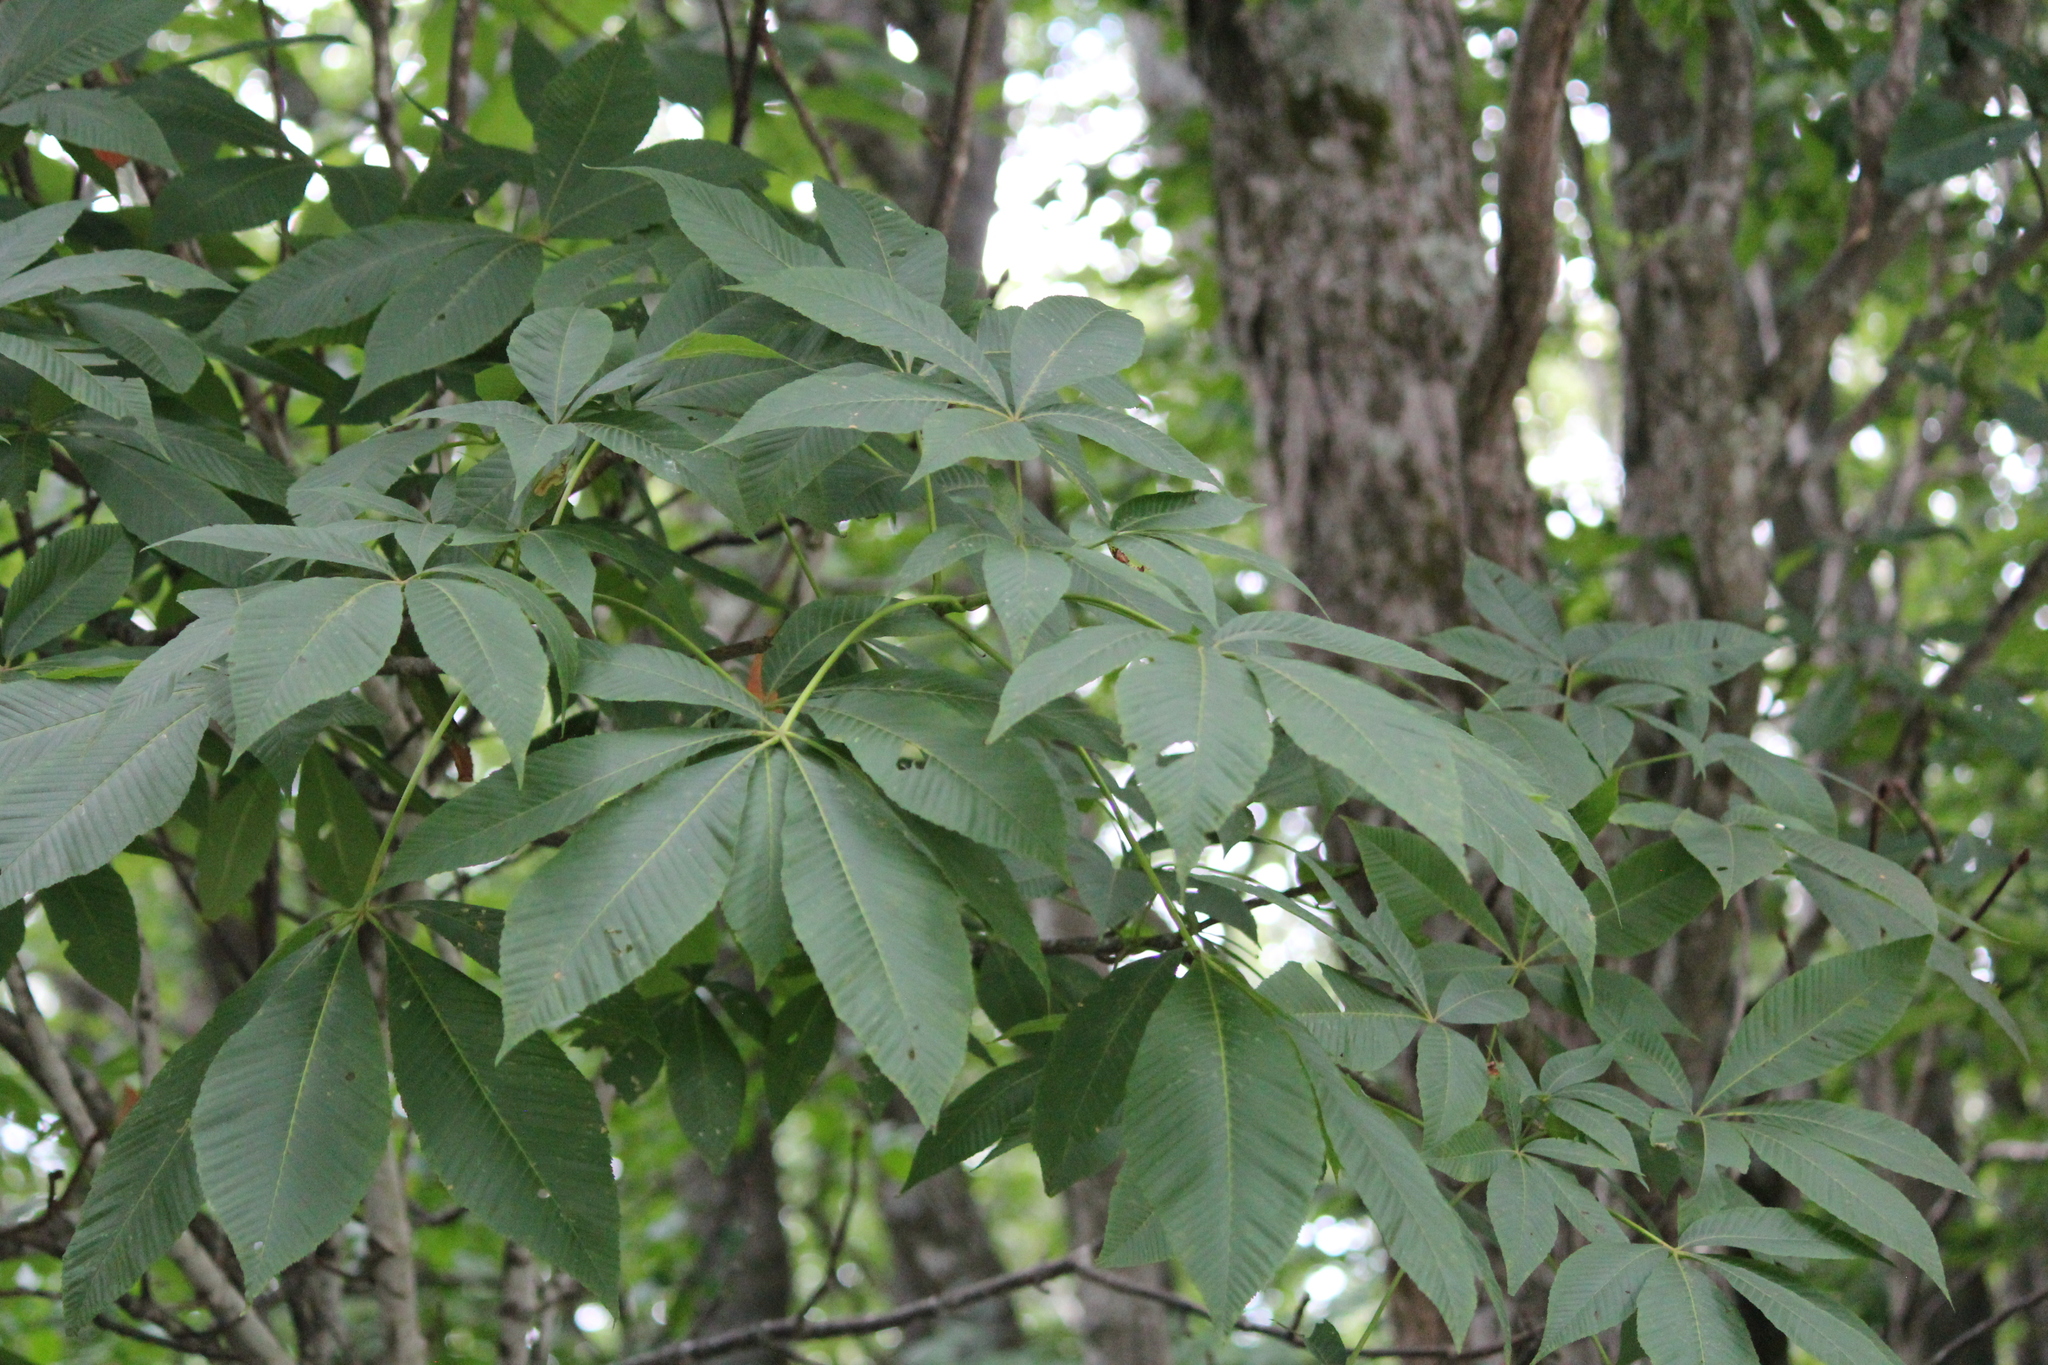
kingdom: Plantae
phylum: Tracheophyta
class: Magnoliopsida
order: Sapindales
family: Sapindaceae
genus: Aesculus
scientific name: Aesculus flava
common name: Yellow buckeye
